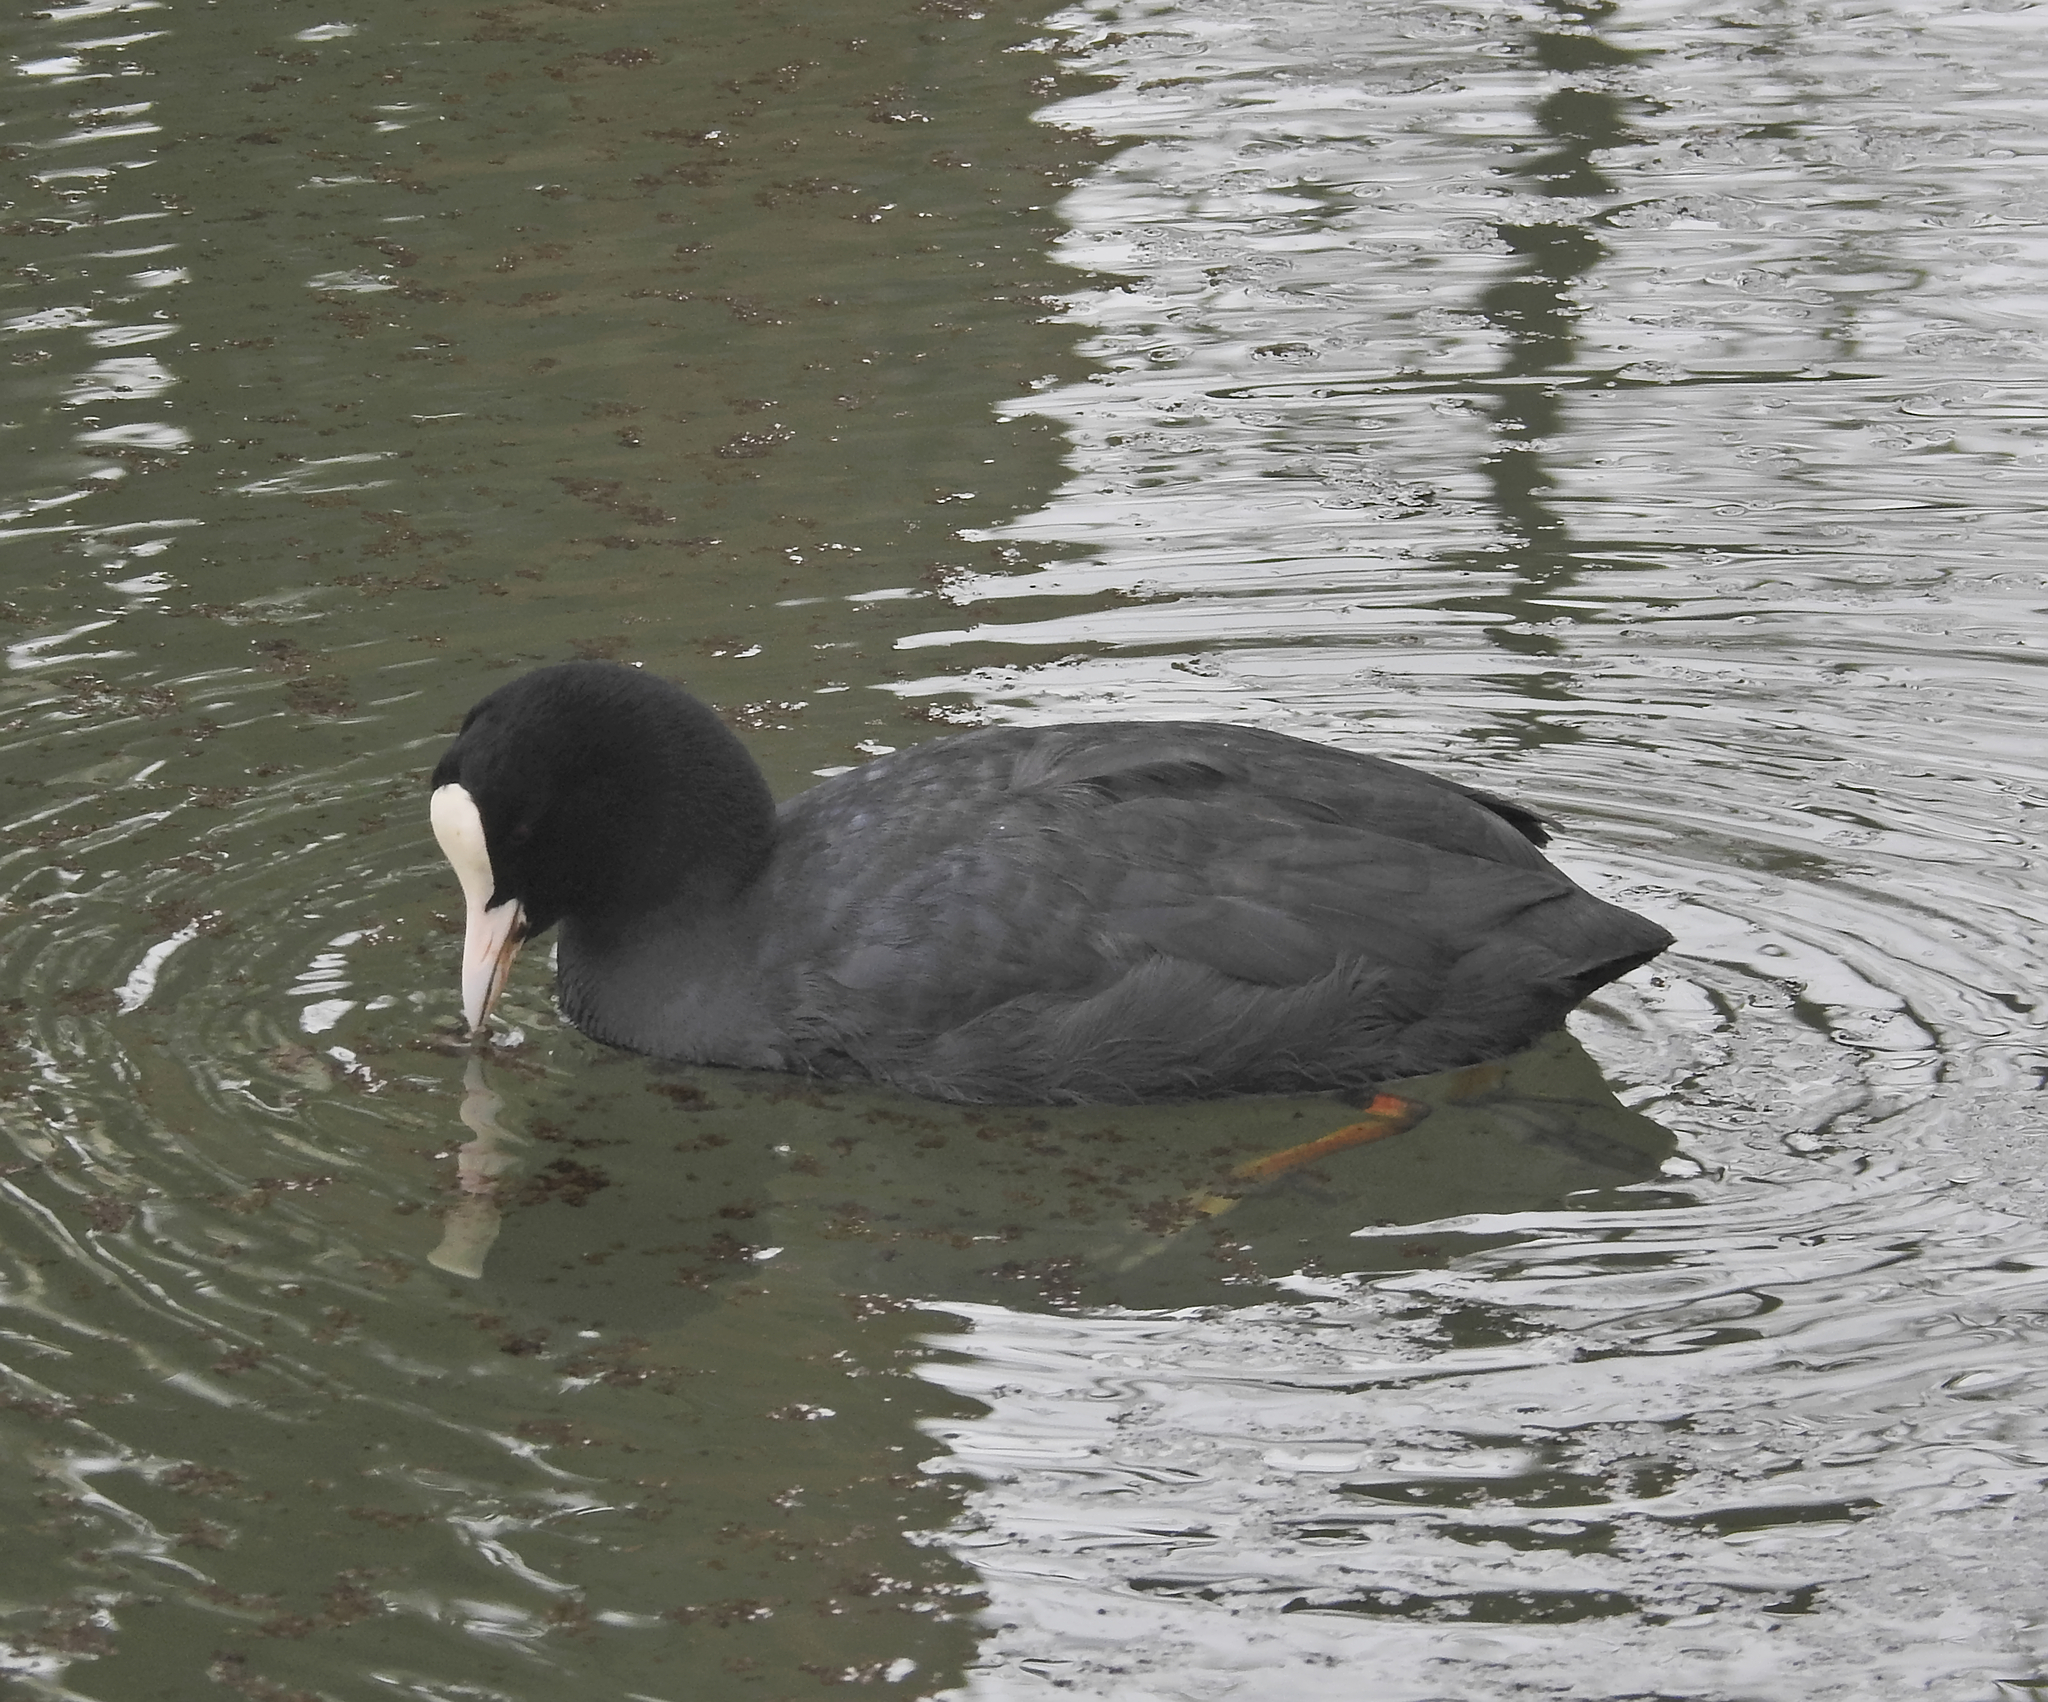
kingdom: Animalia
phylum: Chordata
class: Aves
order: Gruiformes
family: Rallidae
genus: Fulica
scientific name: Fulica atra
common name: Eurasian coot
